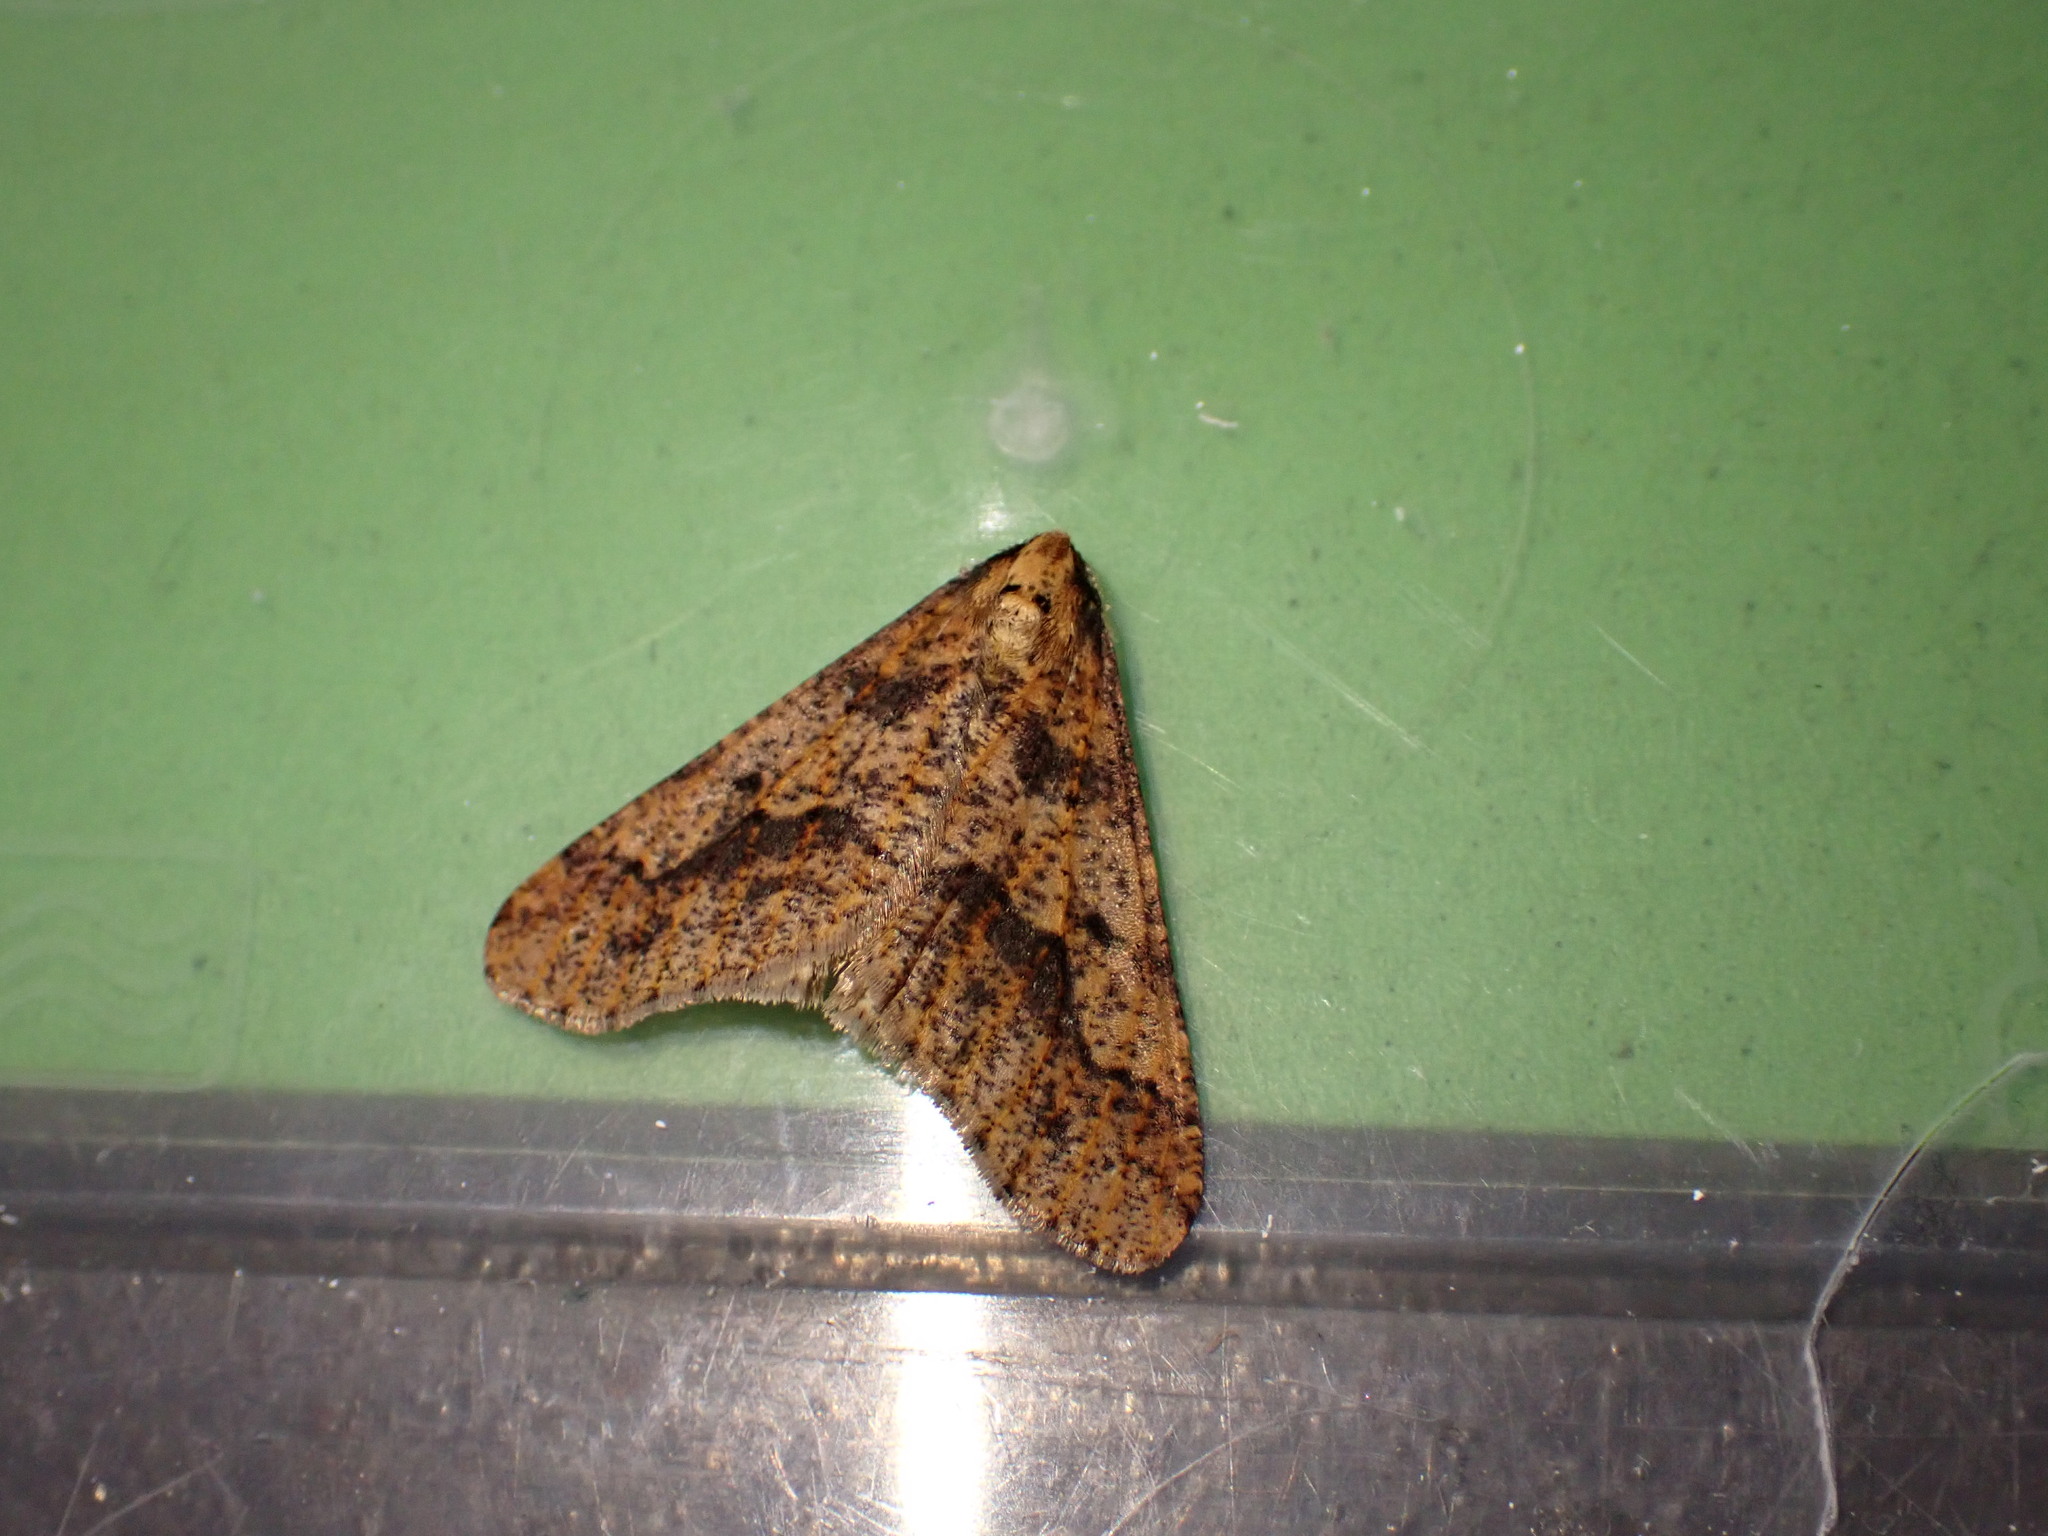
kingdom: Animalia
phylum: Arthropoda
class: Insecta
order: Lepidoptera
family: Geometridae
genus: Erannis
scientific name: Erannis defoliaria
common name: Mottled umber
